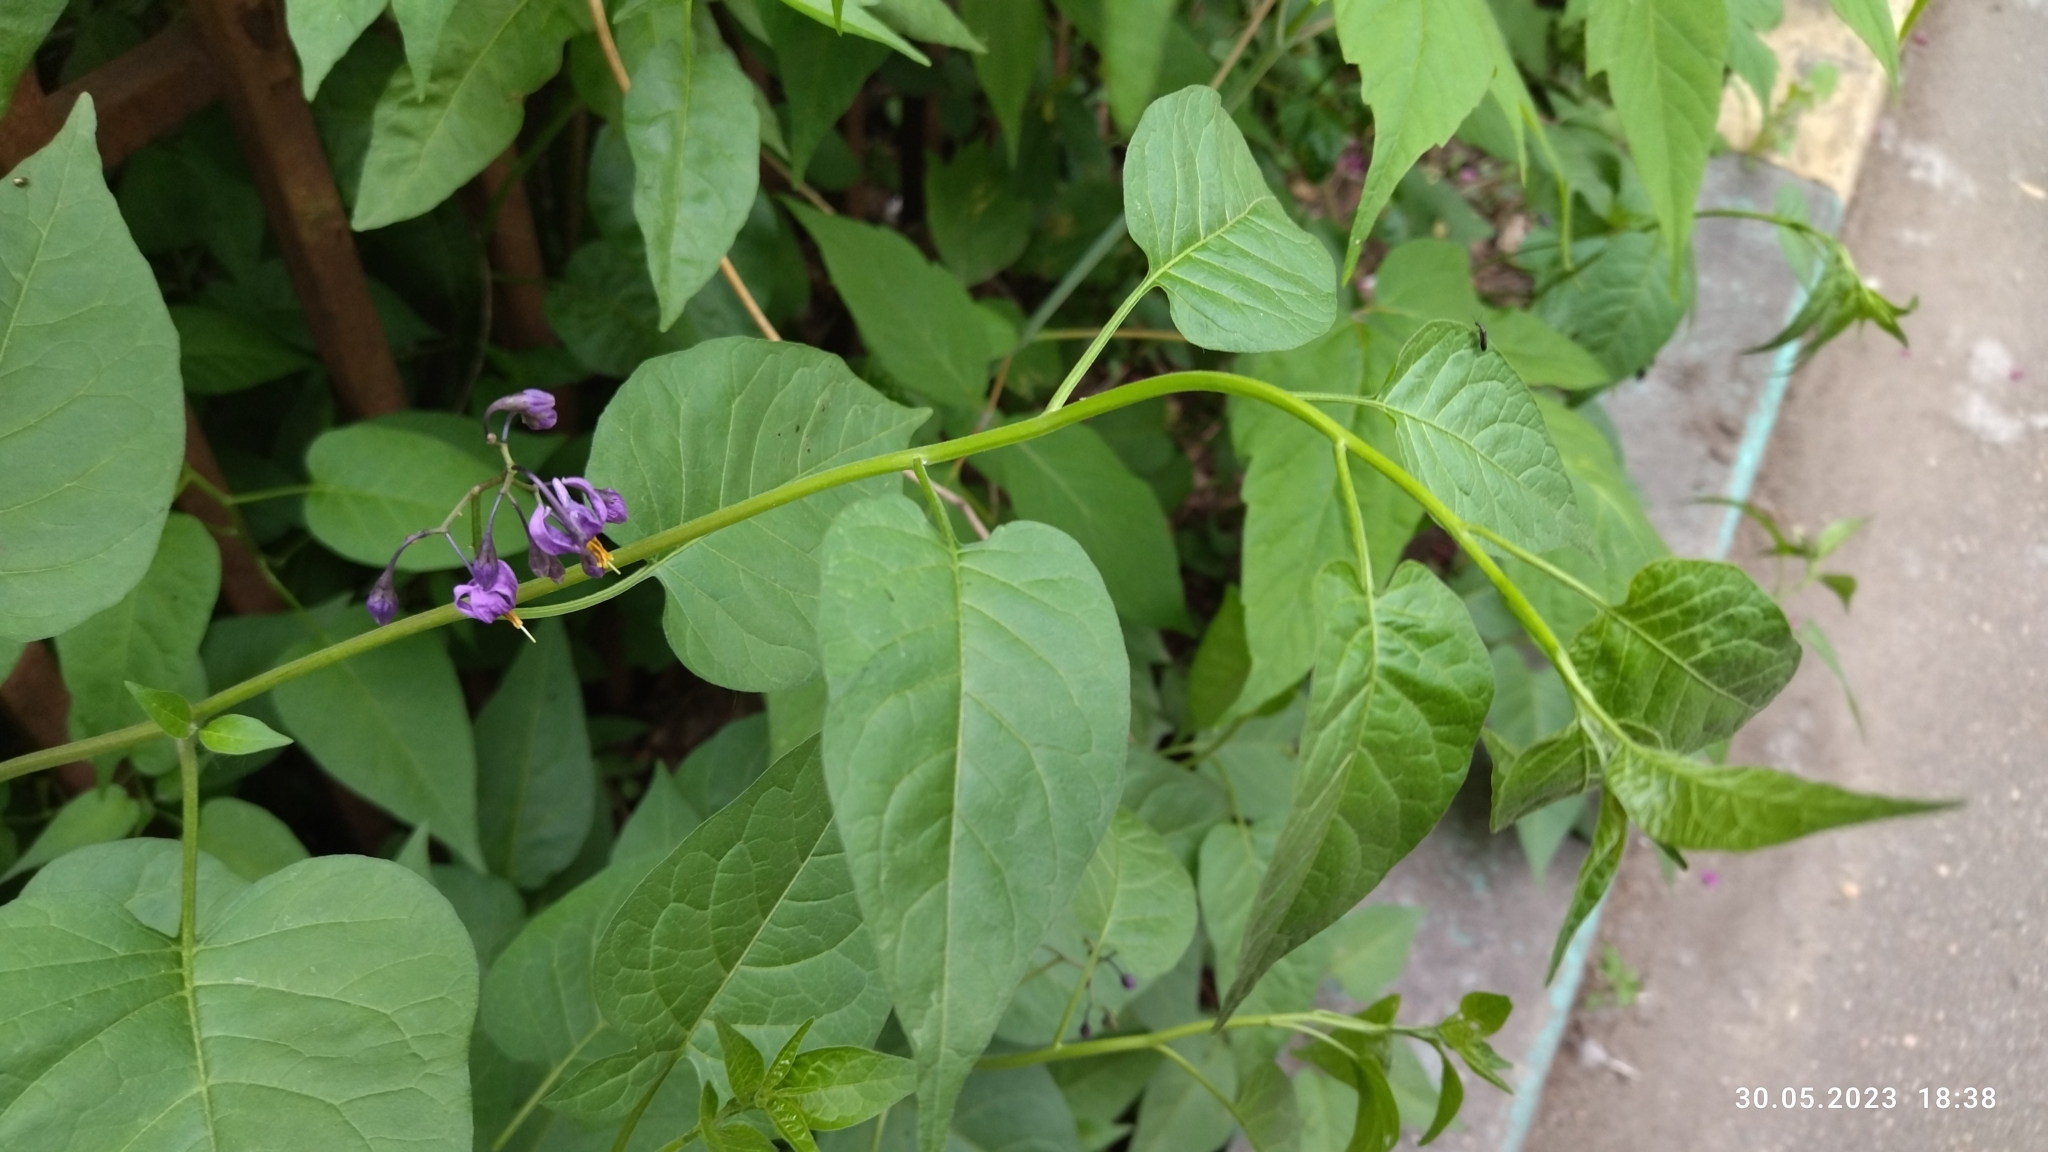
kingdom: Plantae
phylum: Tracheophyta
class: Magnoliopsida
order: Solanales
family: Solanaceae
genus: Solanum
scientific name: Solanum dulcamara
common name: Climbing nightshade
